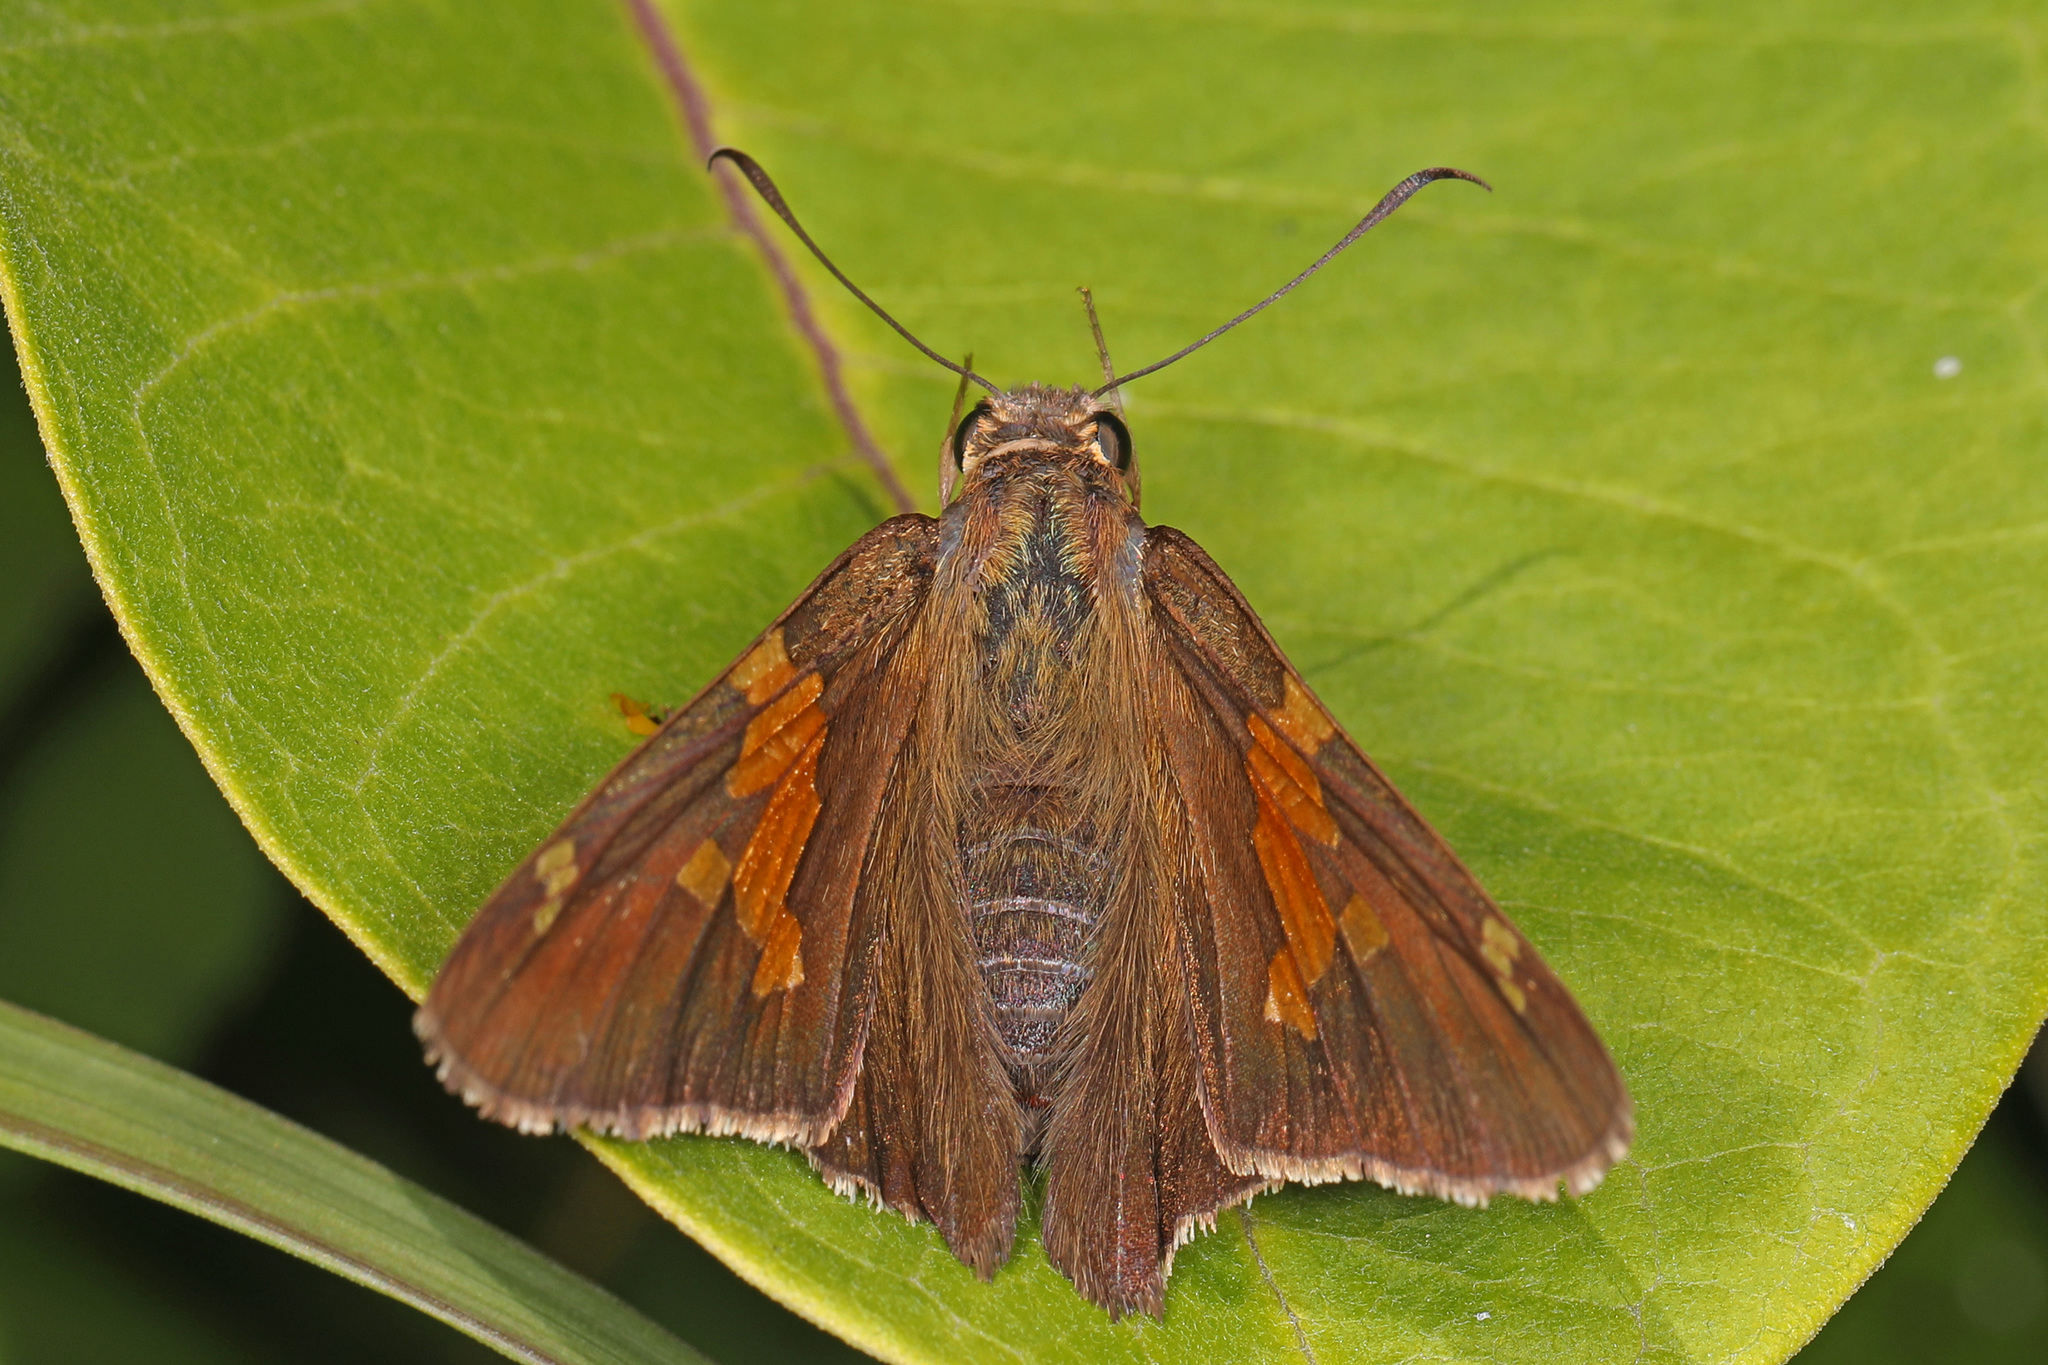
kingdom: Animalia
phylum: Arthropoda
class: Insecta
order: Lepidoptera
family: Hesperiidae
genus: Epargyreus
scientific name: Epargyreus clarus
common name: Silver-spotted skipper
